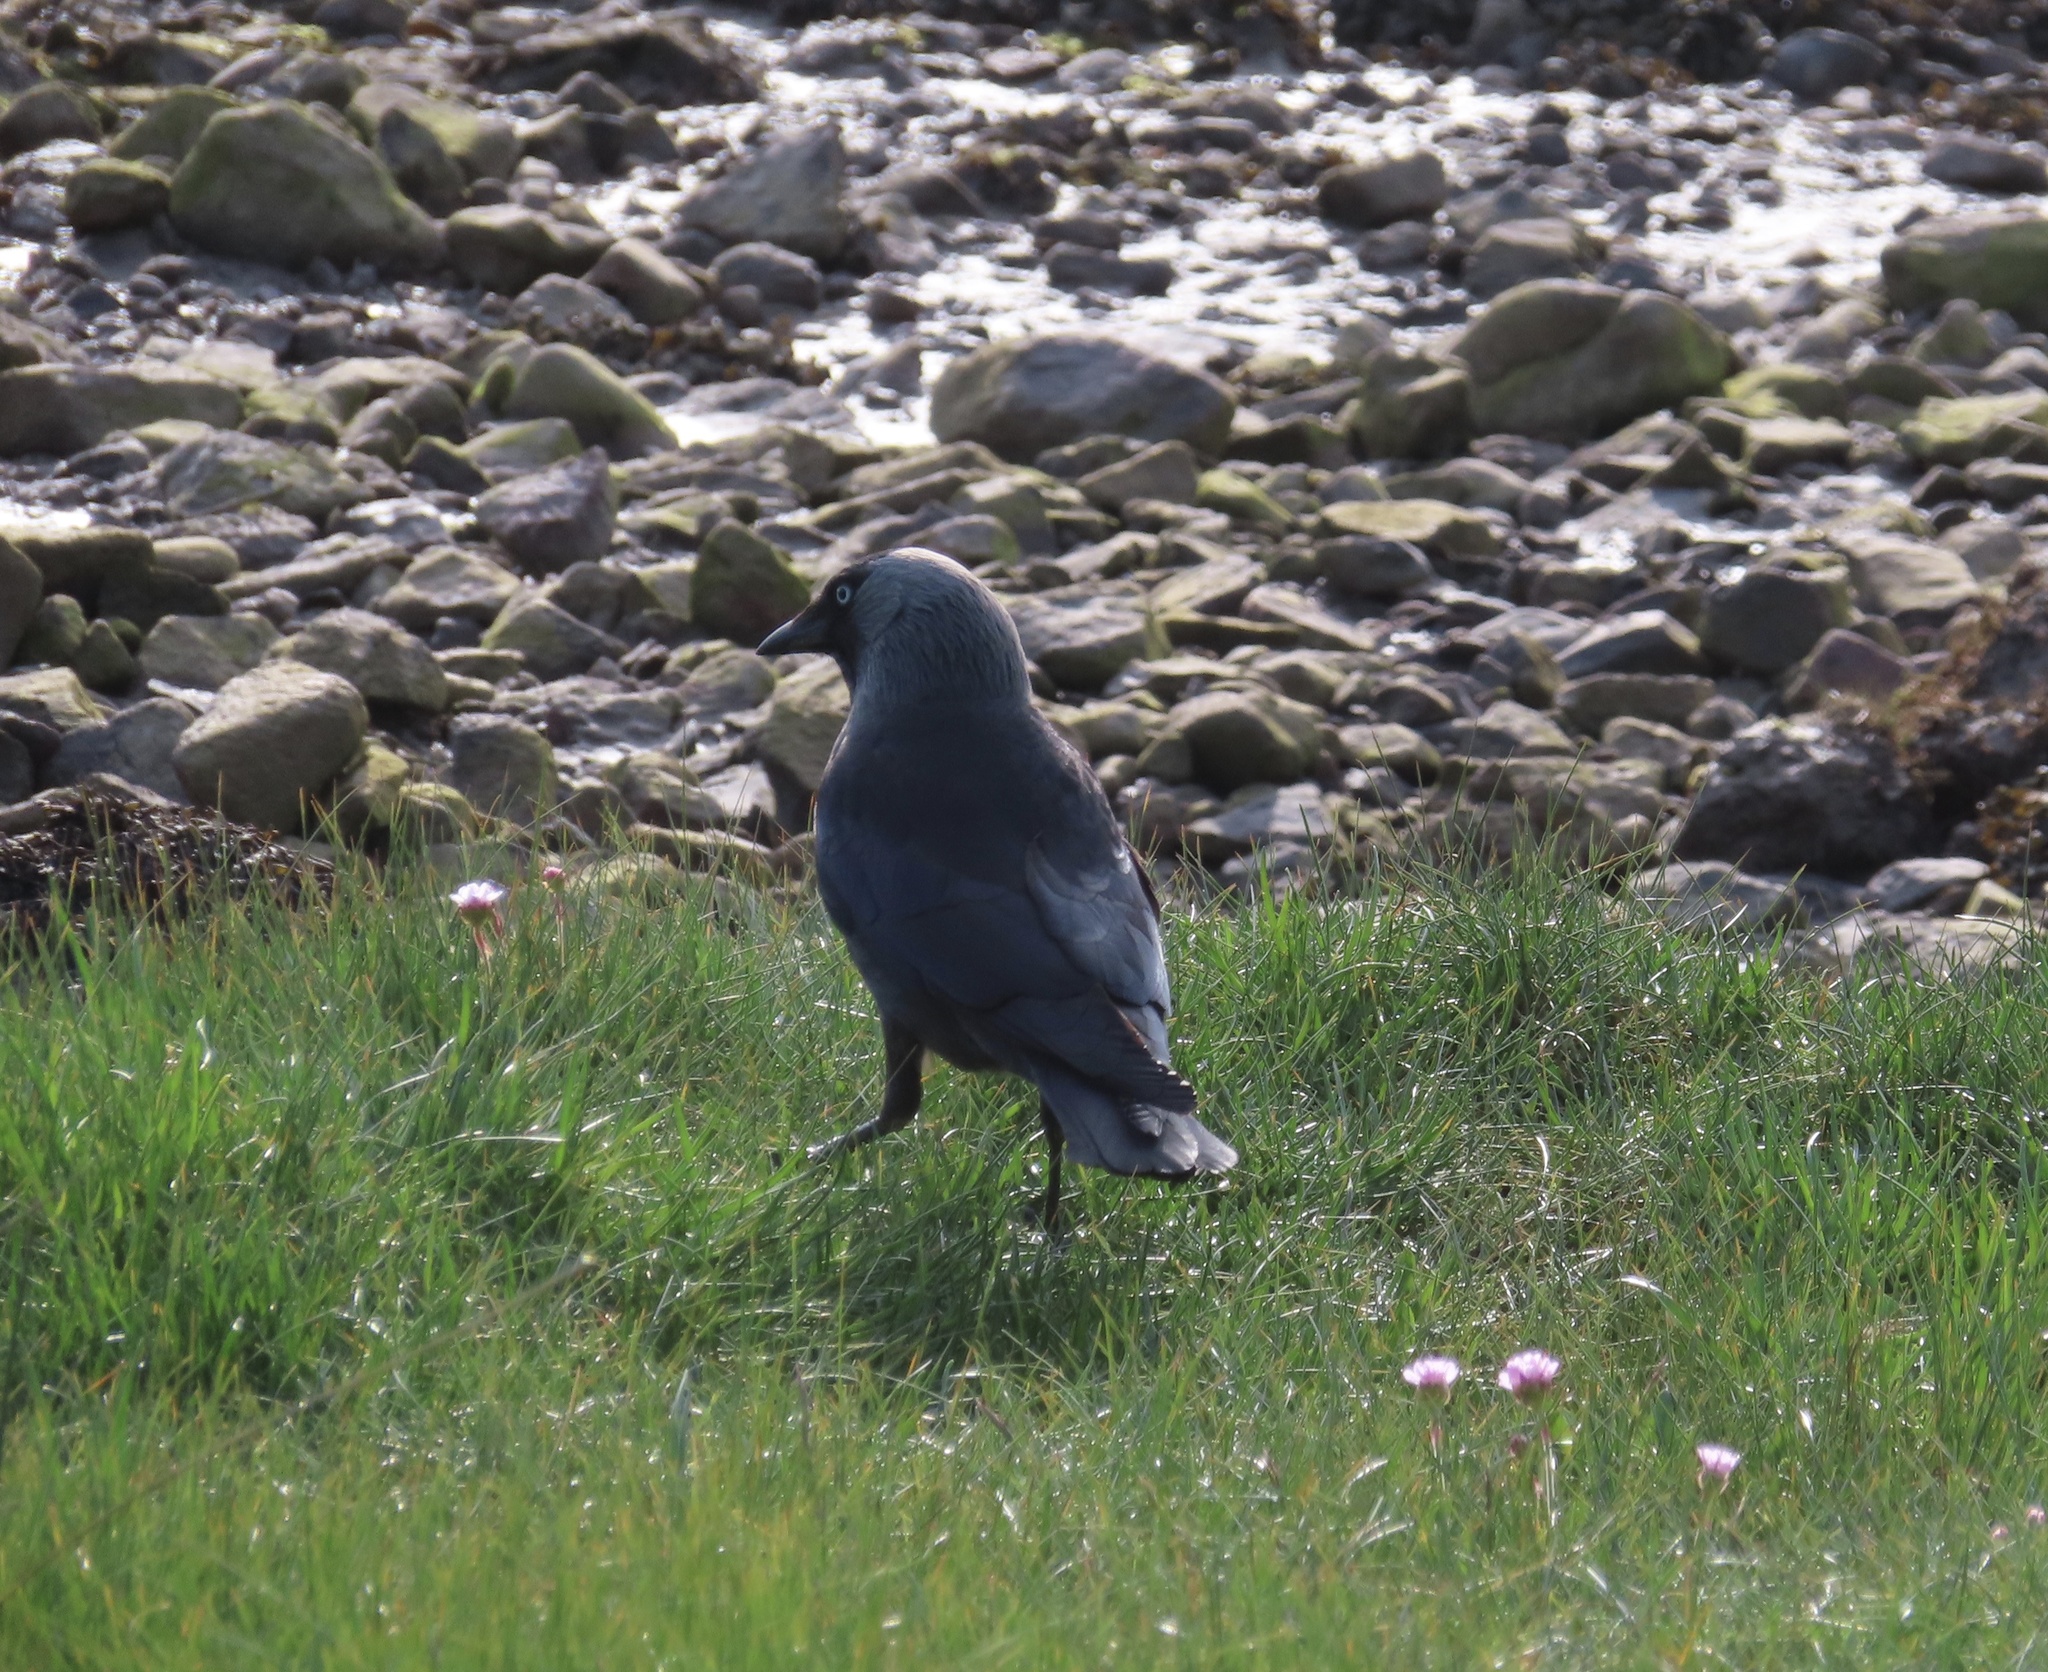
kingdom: Animalia
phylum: Chordata
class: Aves
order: Passeriformes
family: Corvidae
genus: Coloeus
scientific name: Coloeus monedula
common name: Western jackdaw
